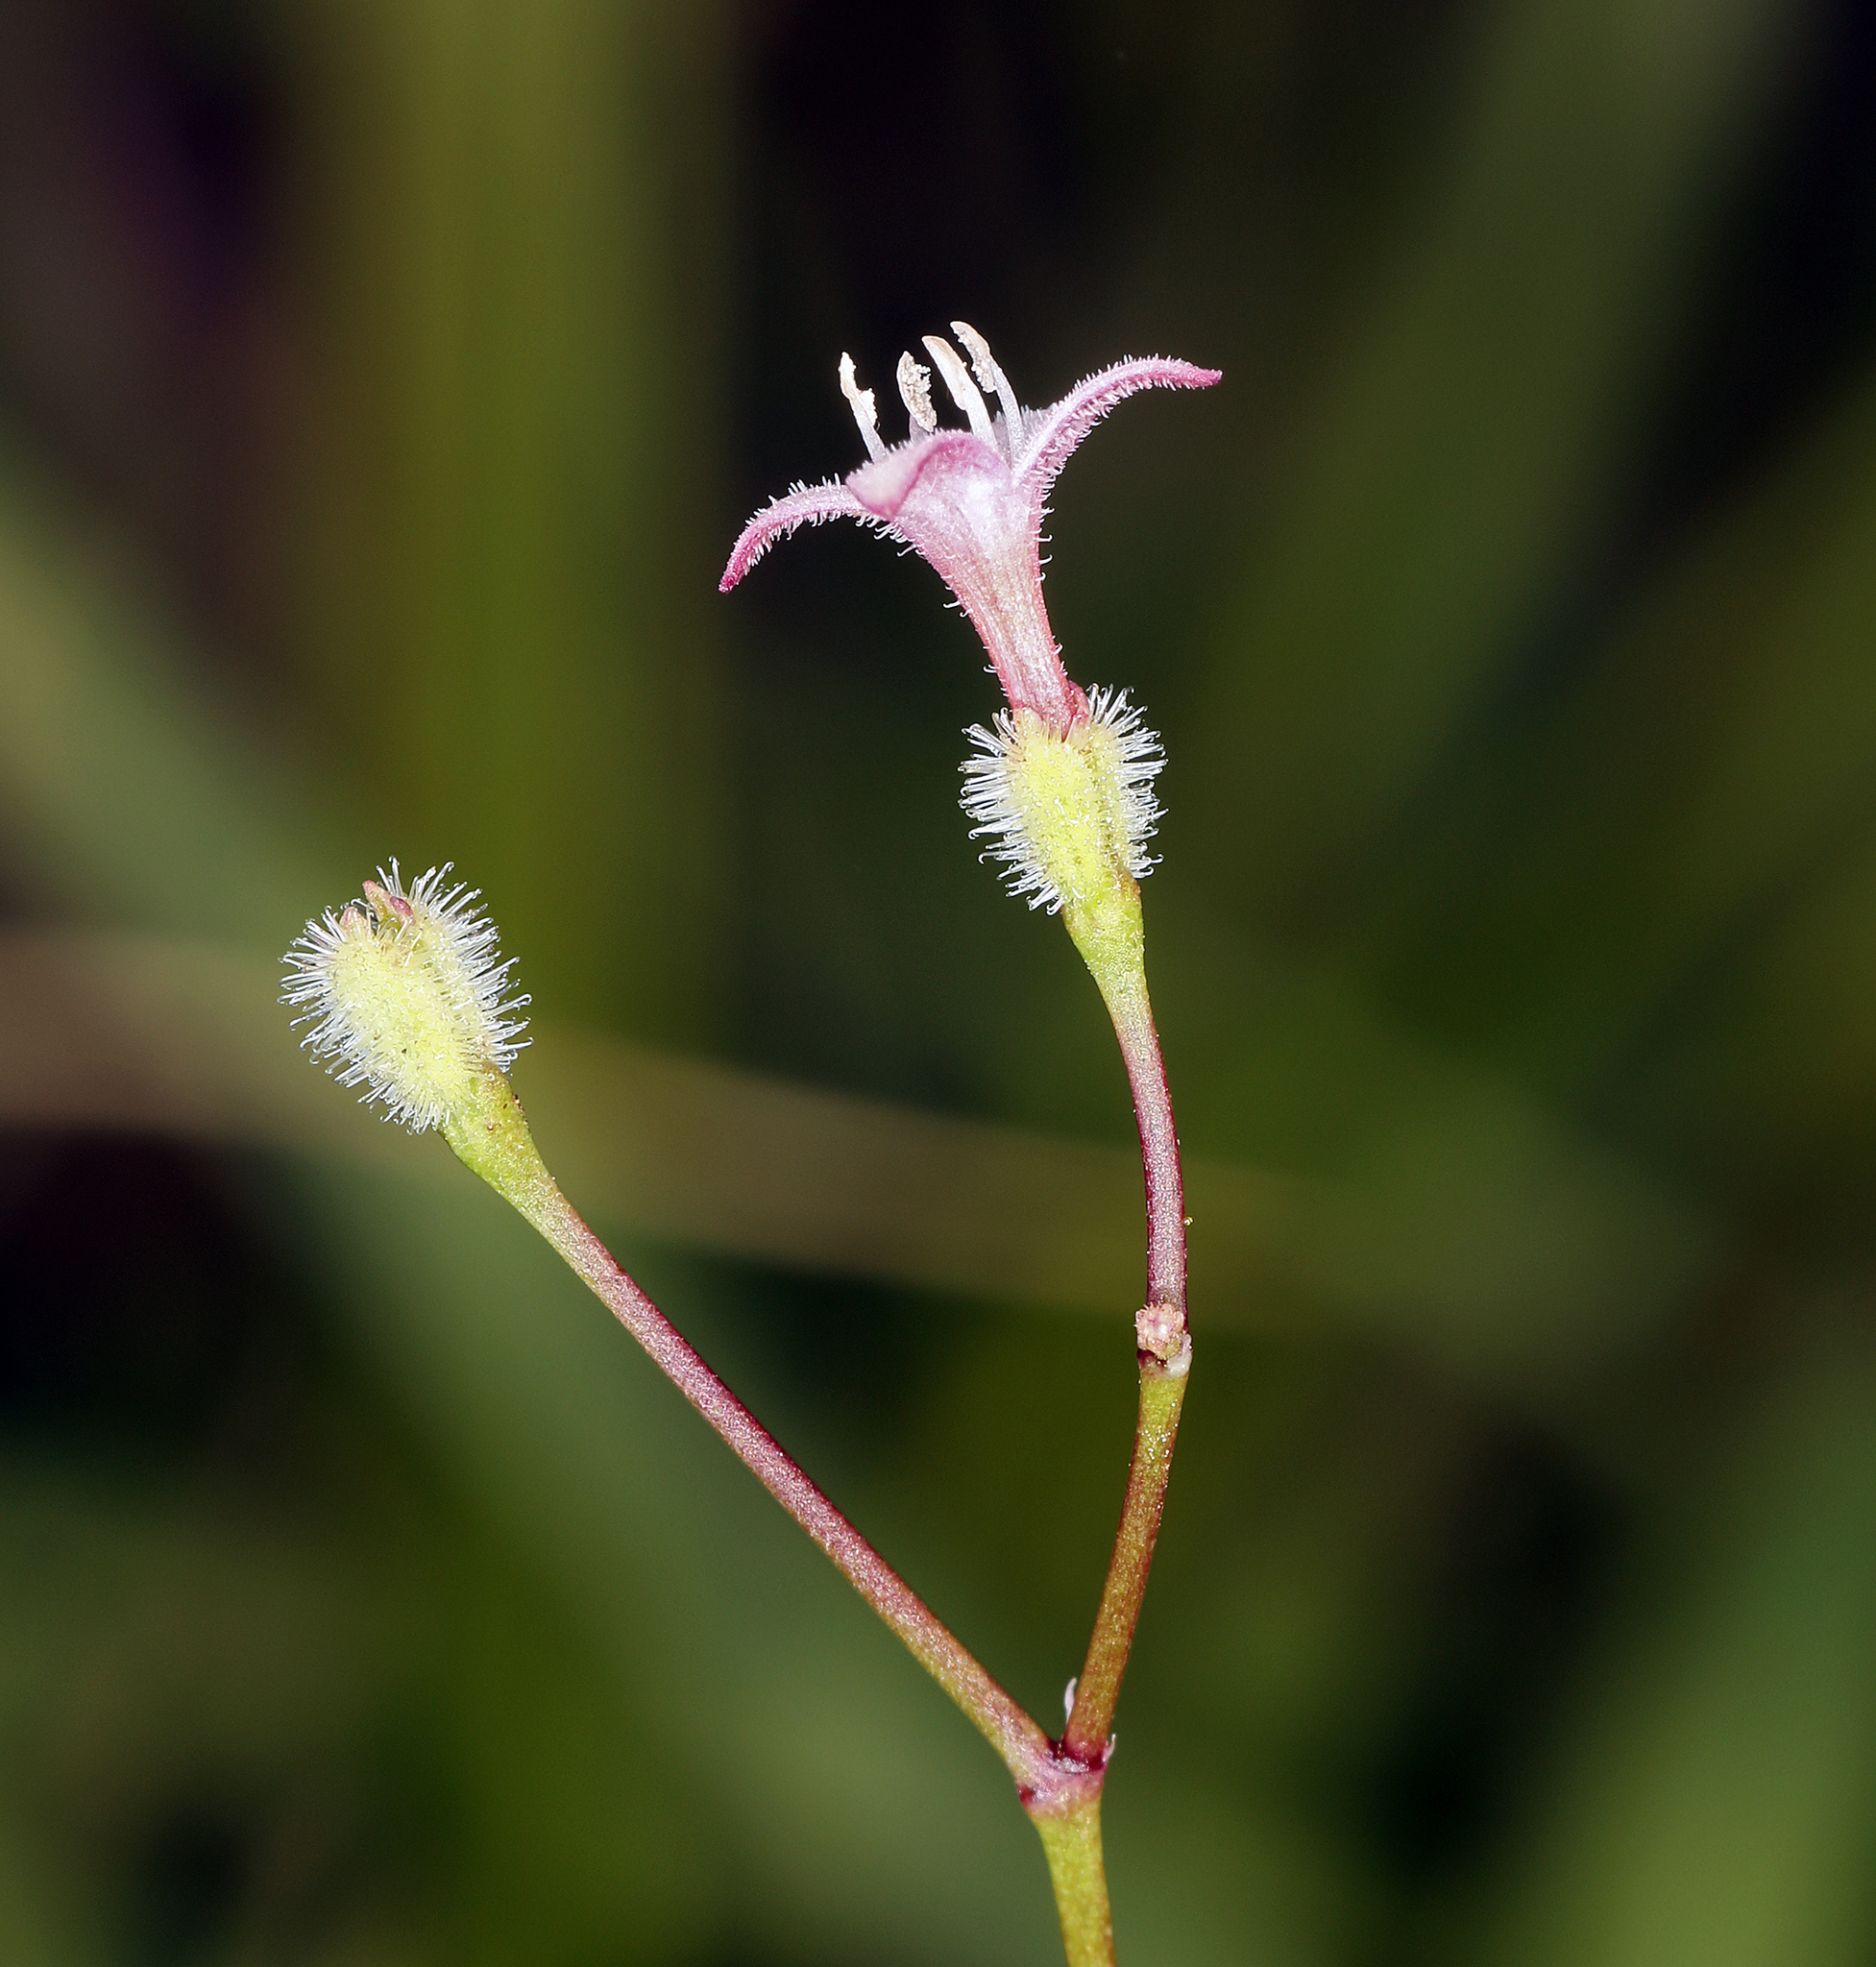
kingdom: Plantae
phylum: Tracheophyta
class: Magnoliopsida
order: Gentianales
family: Rubiaceae
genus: Kelloggia
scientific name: Kelloggia galioides
